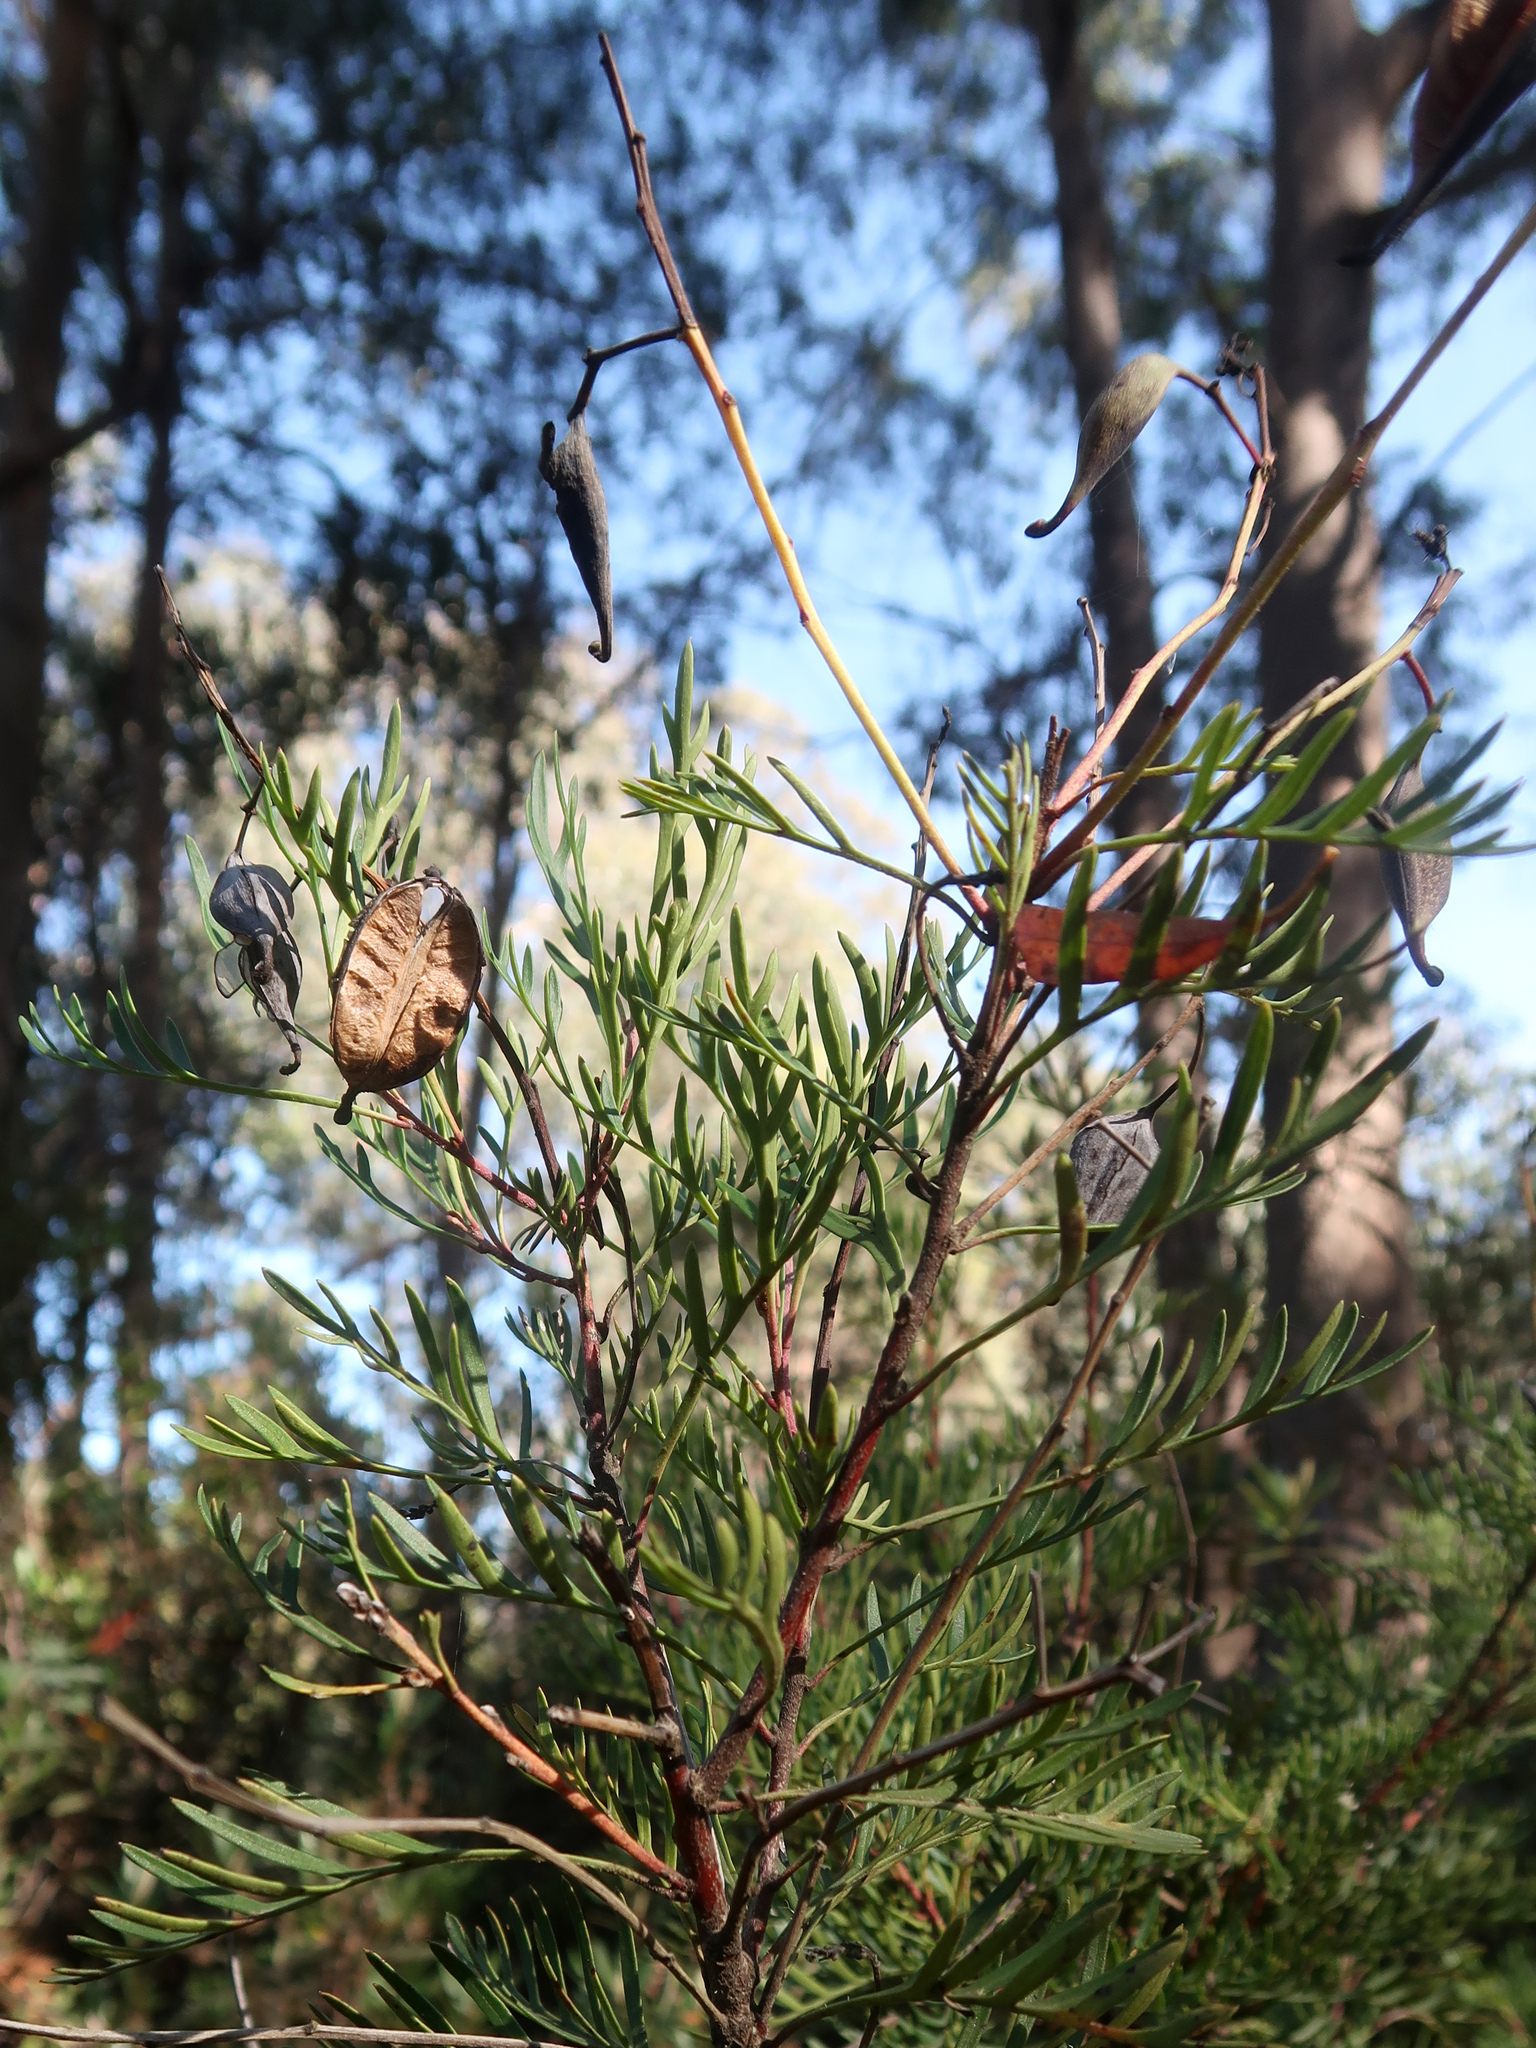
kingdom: Plantae
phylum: Tracheophyta
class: Magnoliopsida
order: Proteales
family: Proteaceae
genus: Lomatia
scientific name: Lomatia tinctoria
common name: Guitar plant
